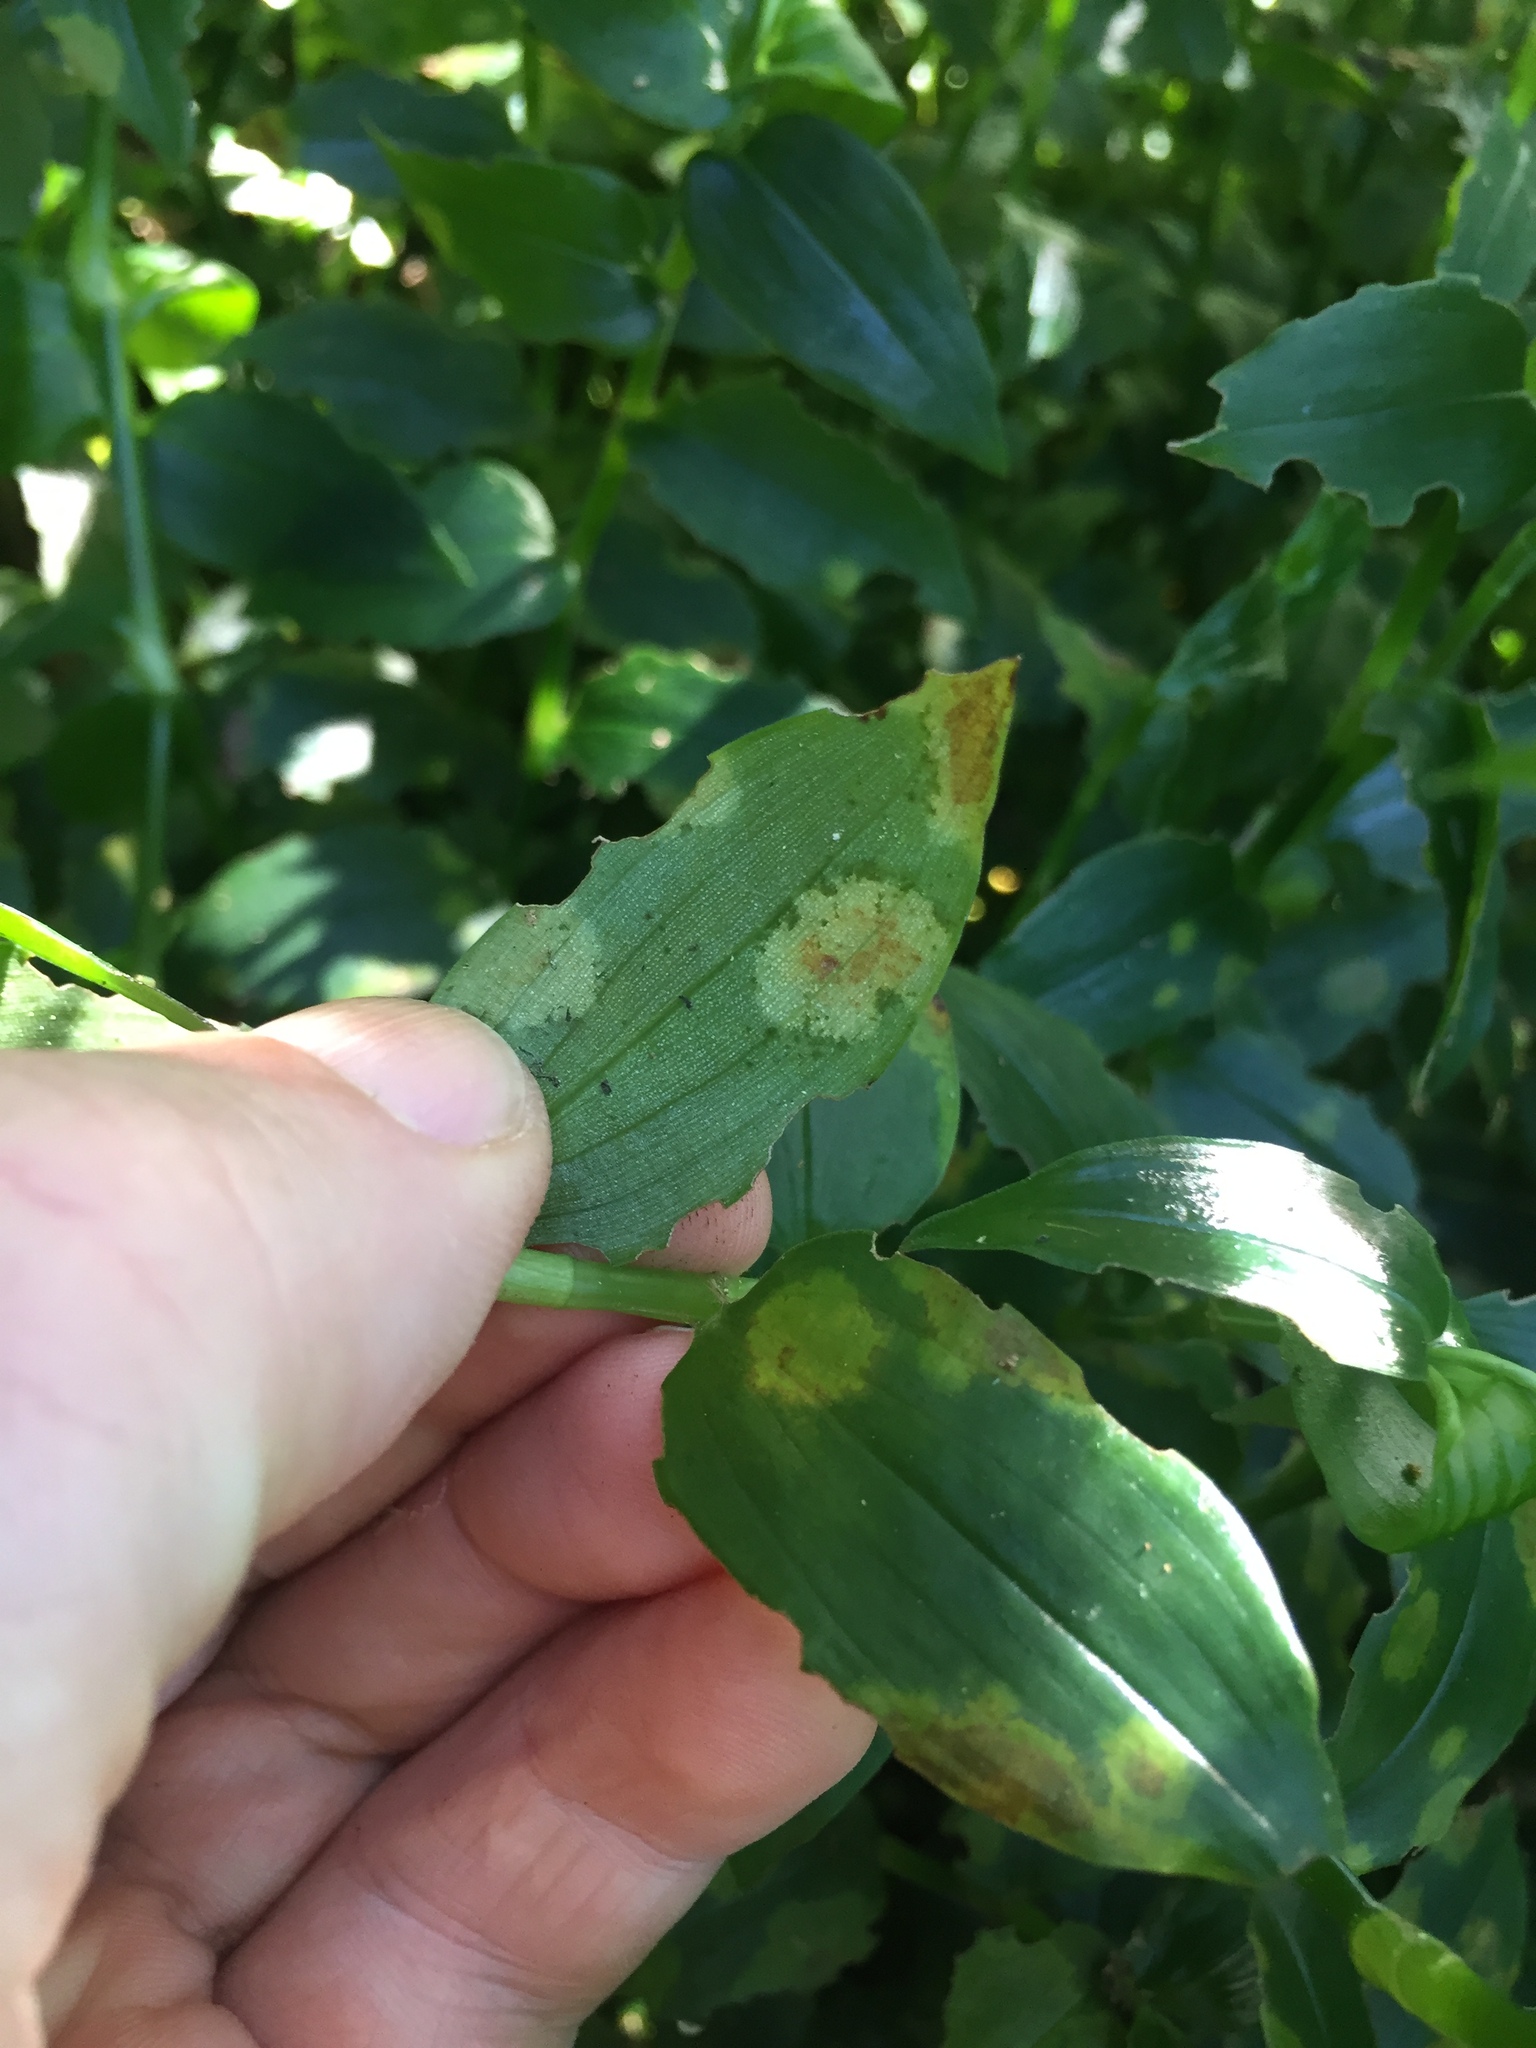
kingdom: Fungi
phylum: Basidiomycota
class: Exobasidiomycetes
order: Exobasidiales
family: Brachybasidiaceae
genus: Kordyana
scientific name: Kordyana brasiliensis
